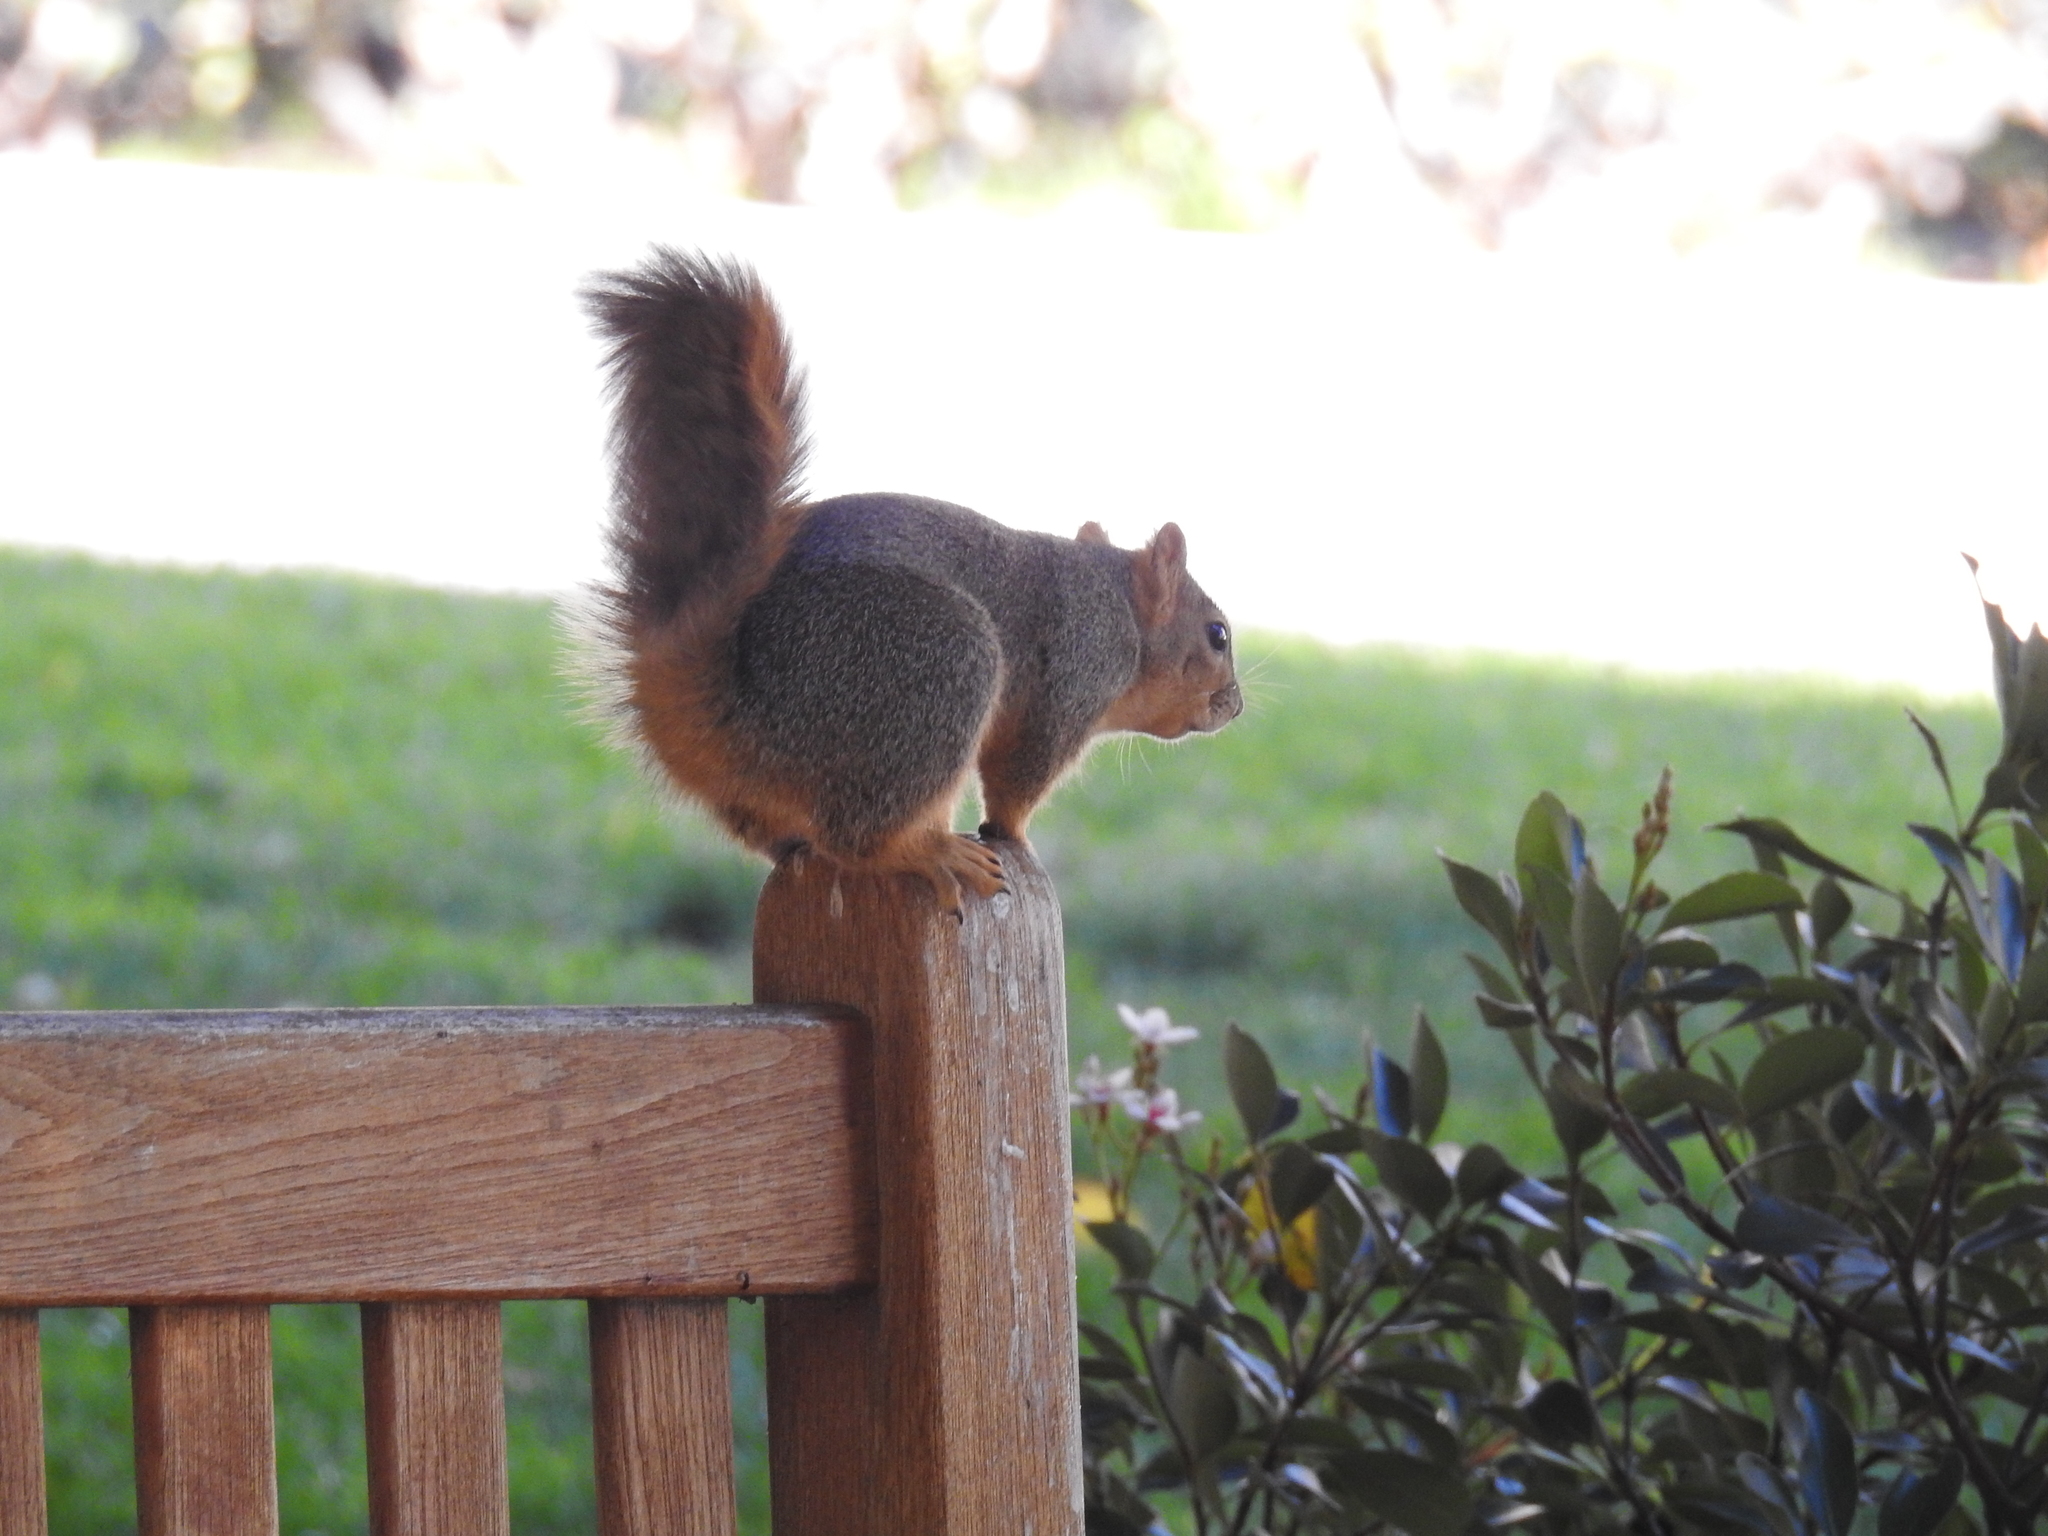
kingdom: Animalia
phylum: Chordata
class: Mammalia
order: Rodentia
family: Sciuridae
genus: Sciurus
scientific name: Sciurus niger
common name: Fox squirrel
